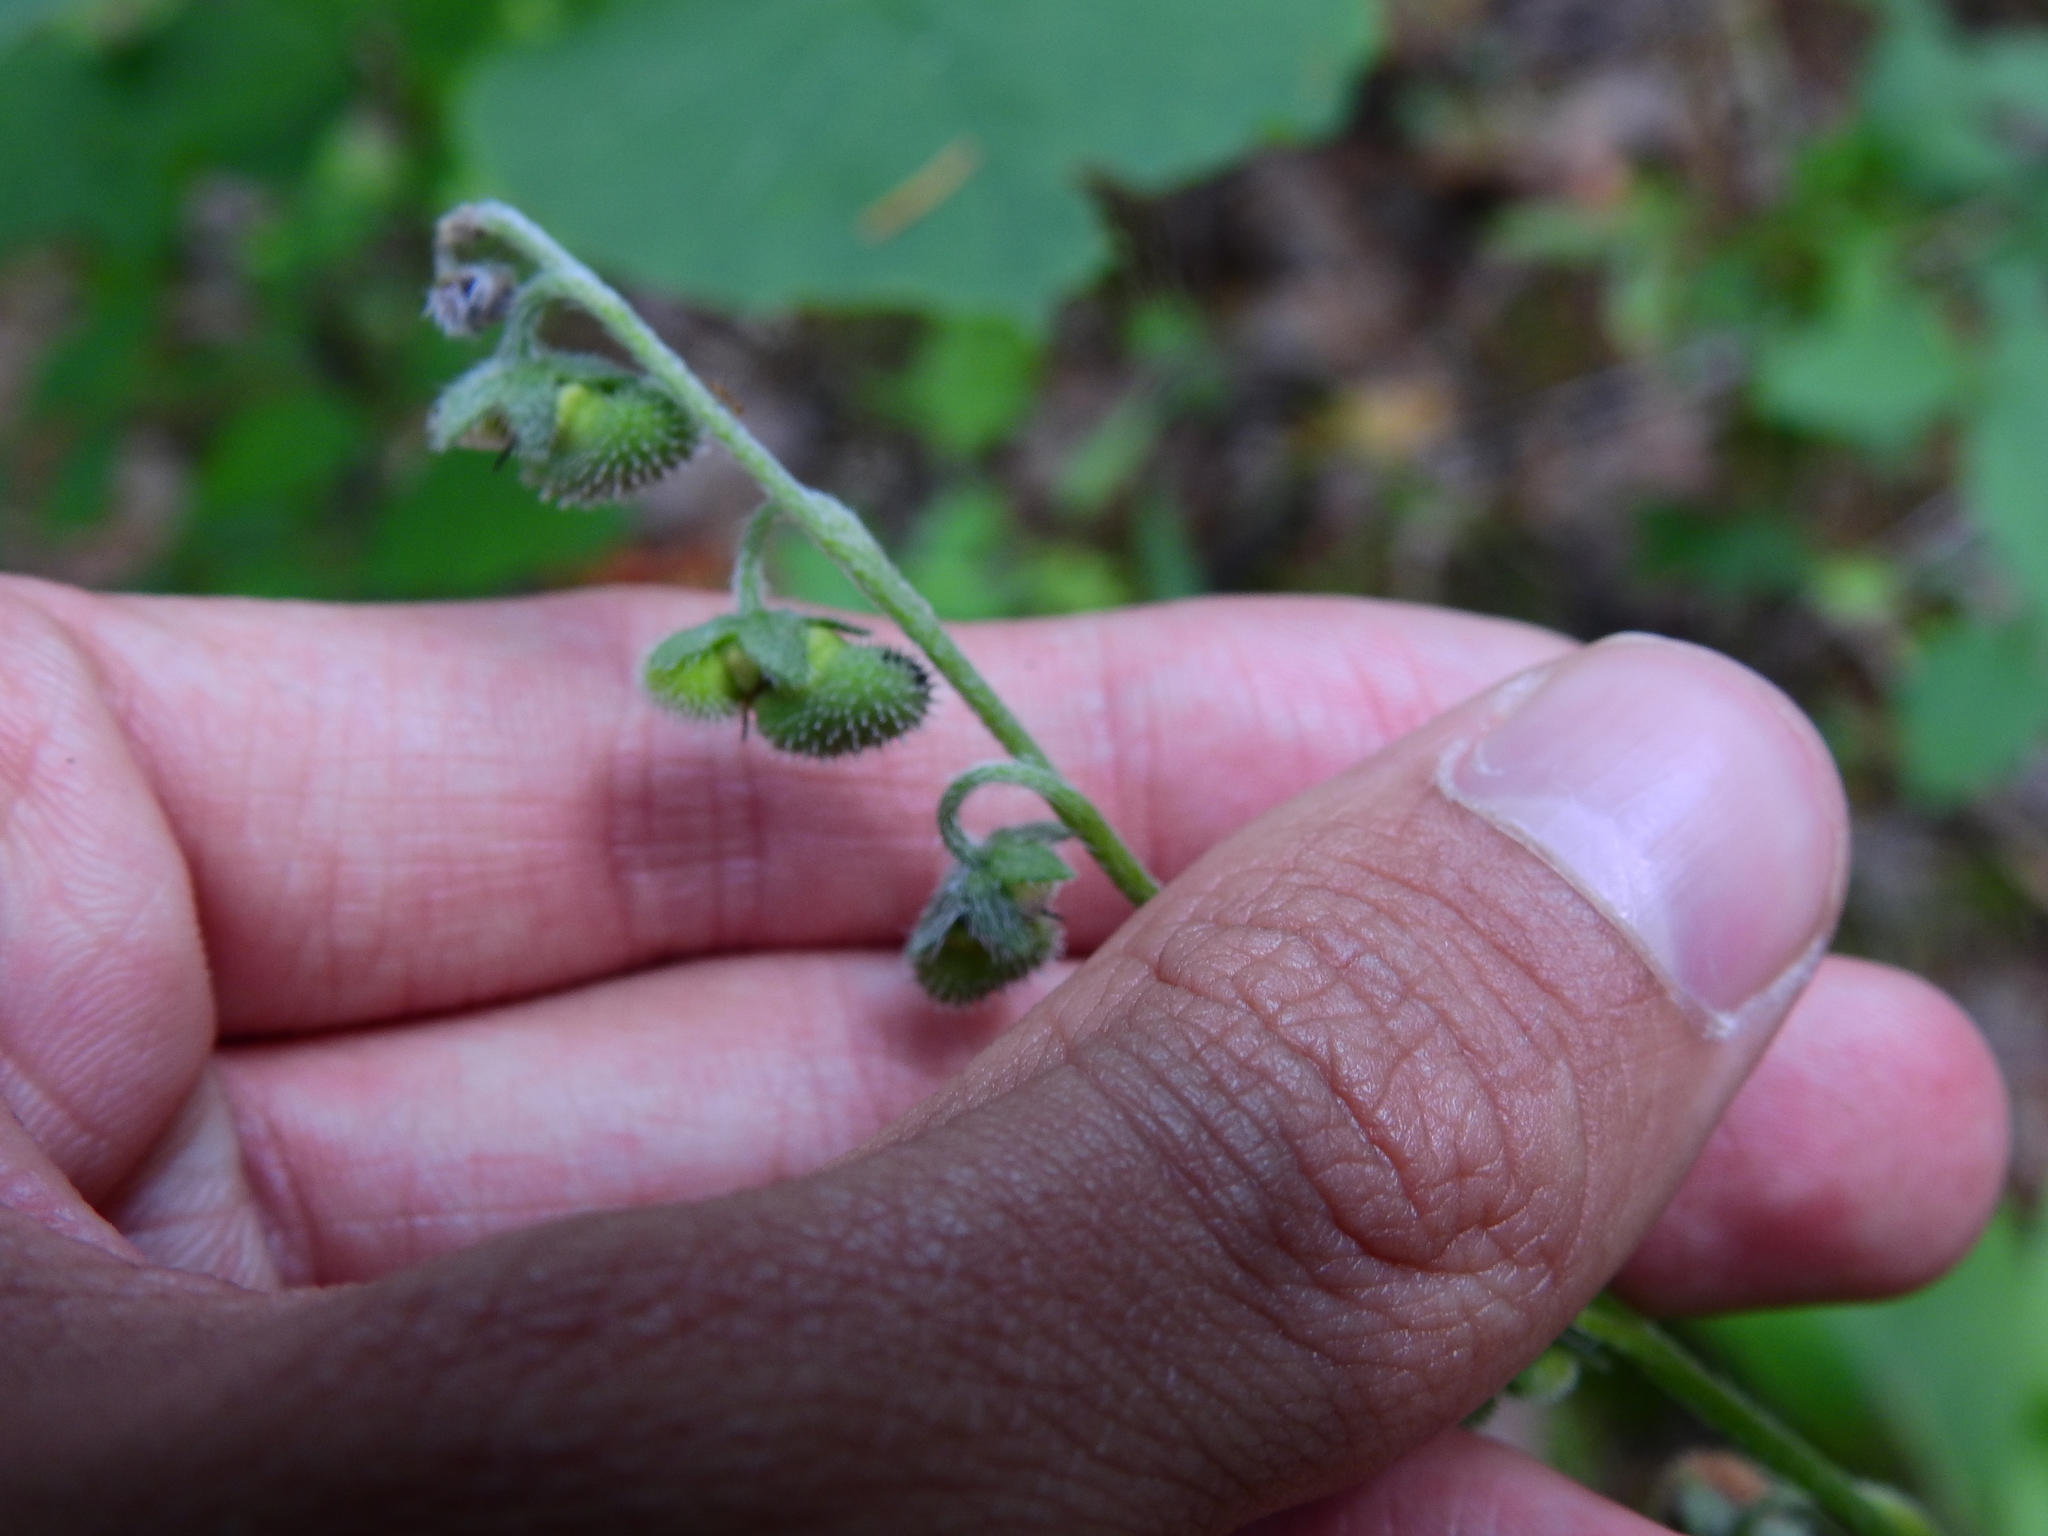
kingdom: Plantae
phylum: Tracheophyta
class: Magnoliopsida
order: Boraginales
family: Boraginaceae
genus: Andersonglossum
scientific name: Andersonglossum virginianum
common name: Wild comfrey
